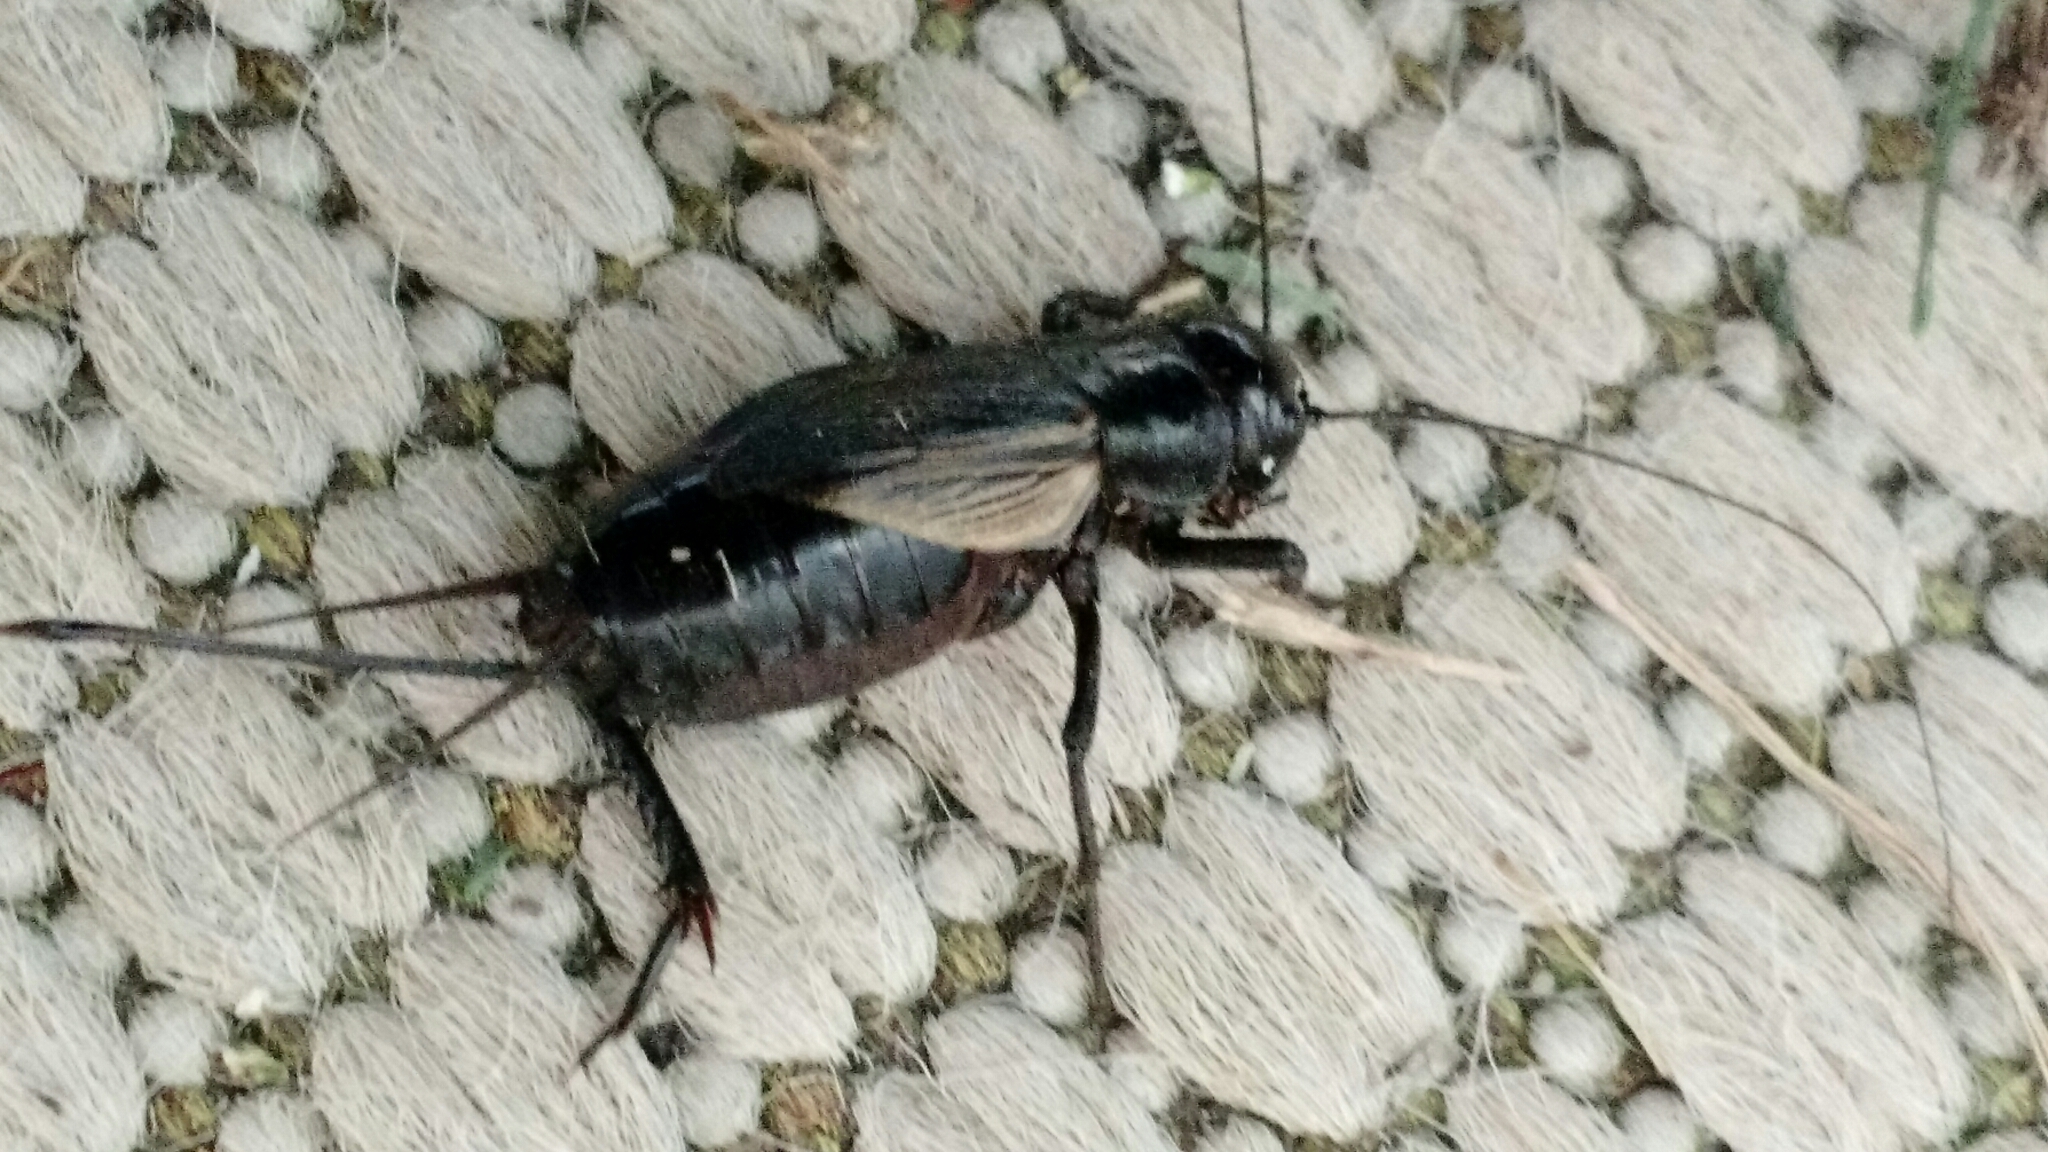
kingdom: Animalia
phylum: Arthropoda
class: Insecta
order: Orthoptera
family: Gryllidae
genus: Gryllus
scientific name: Gryllus pennsylvanicus
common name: Fall field cricket
